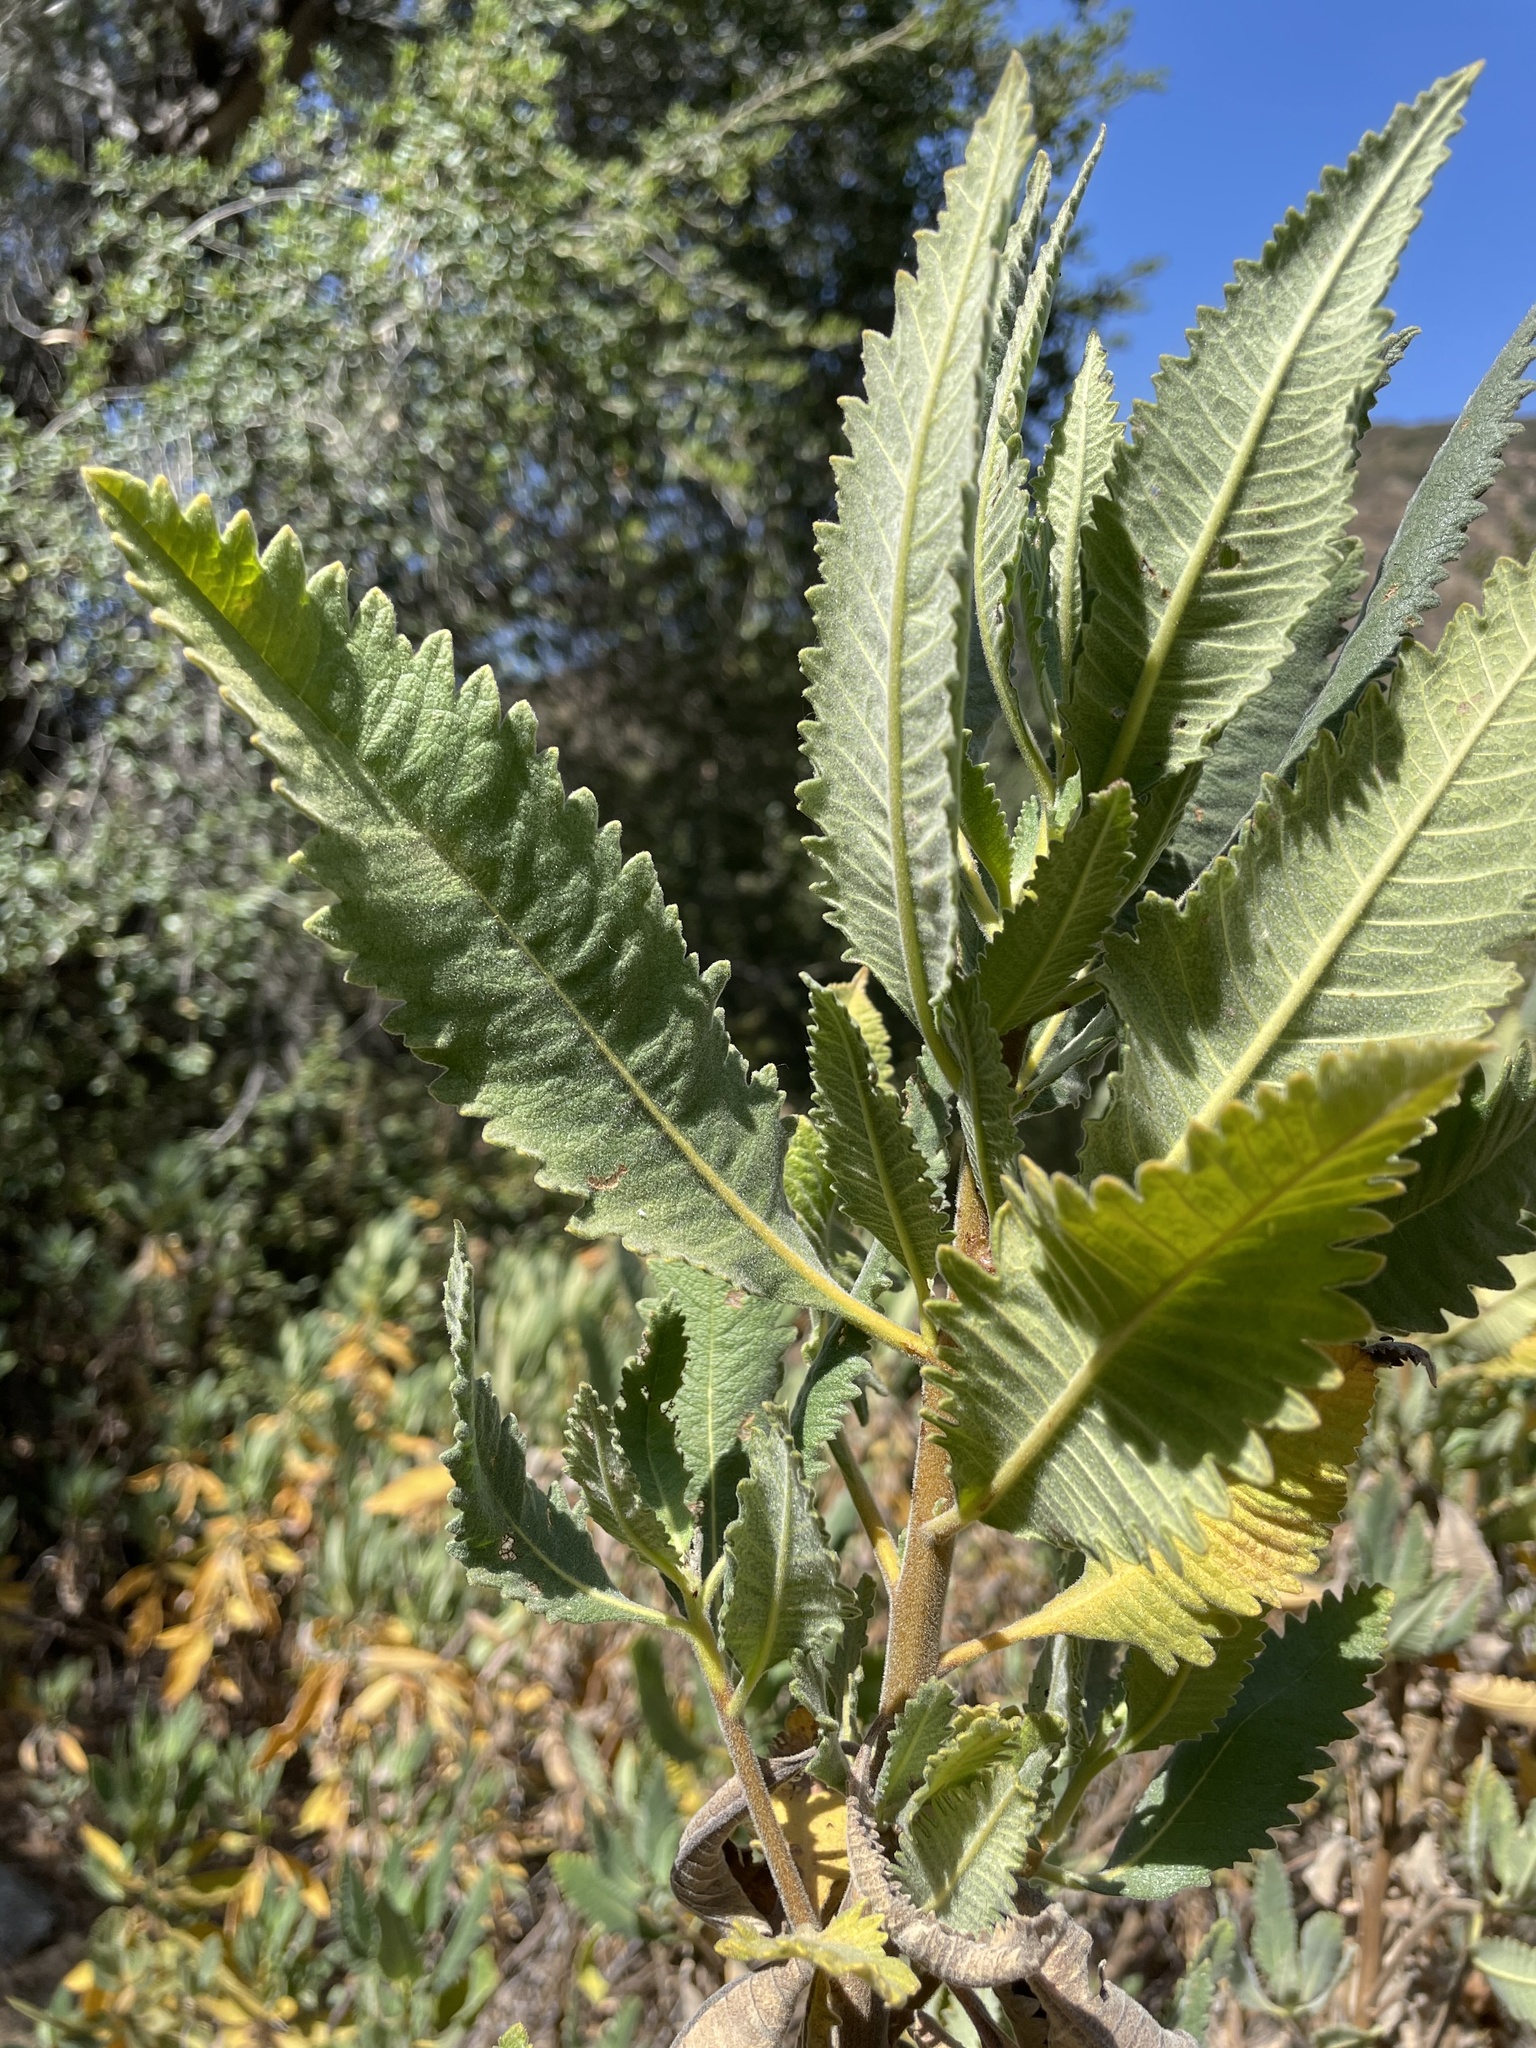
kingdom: Plantae
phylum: Tracheophyta
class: Magnoliopsida
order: Boraginales
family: Namaceae
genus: Eriodictyon
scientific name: Eriodictyon crassifolium
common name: Thick-leaf yerba-santa
